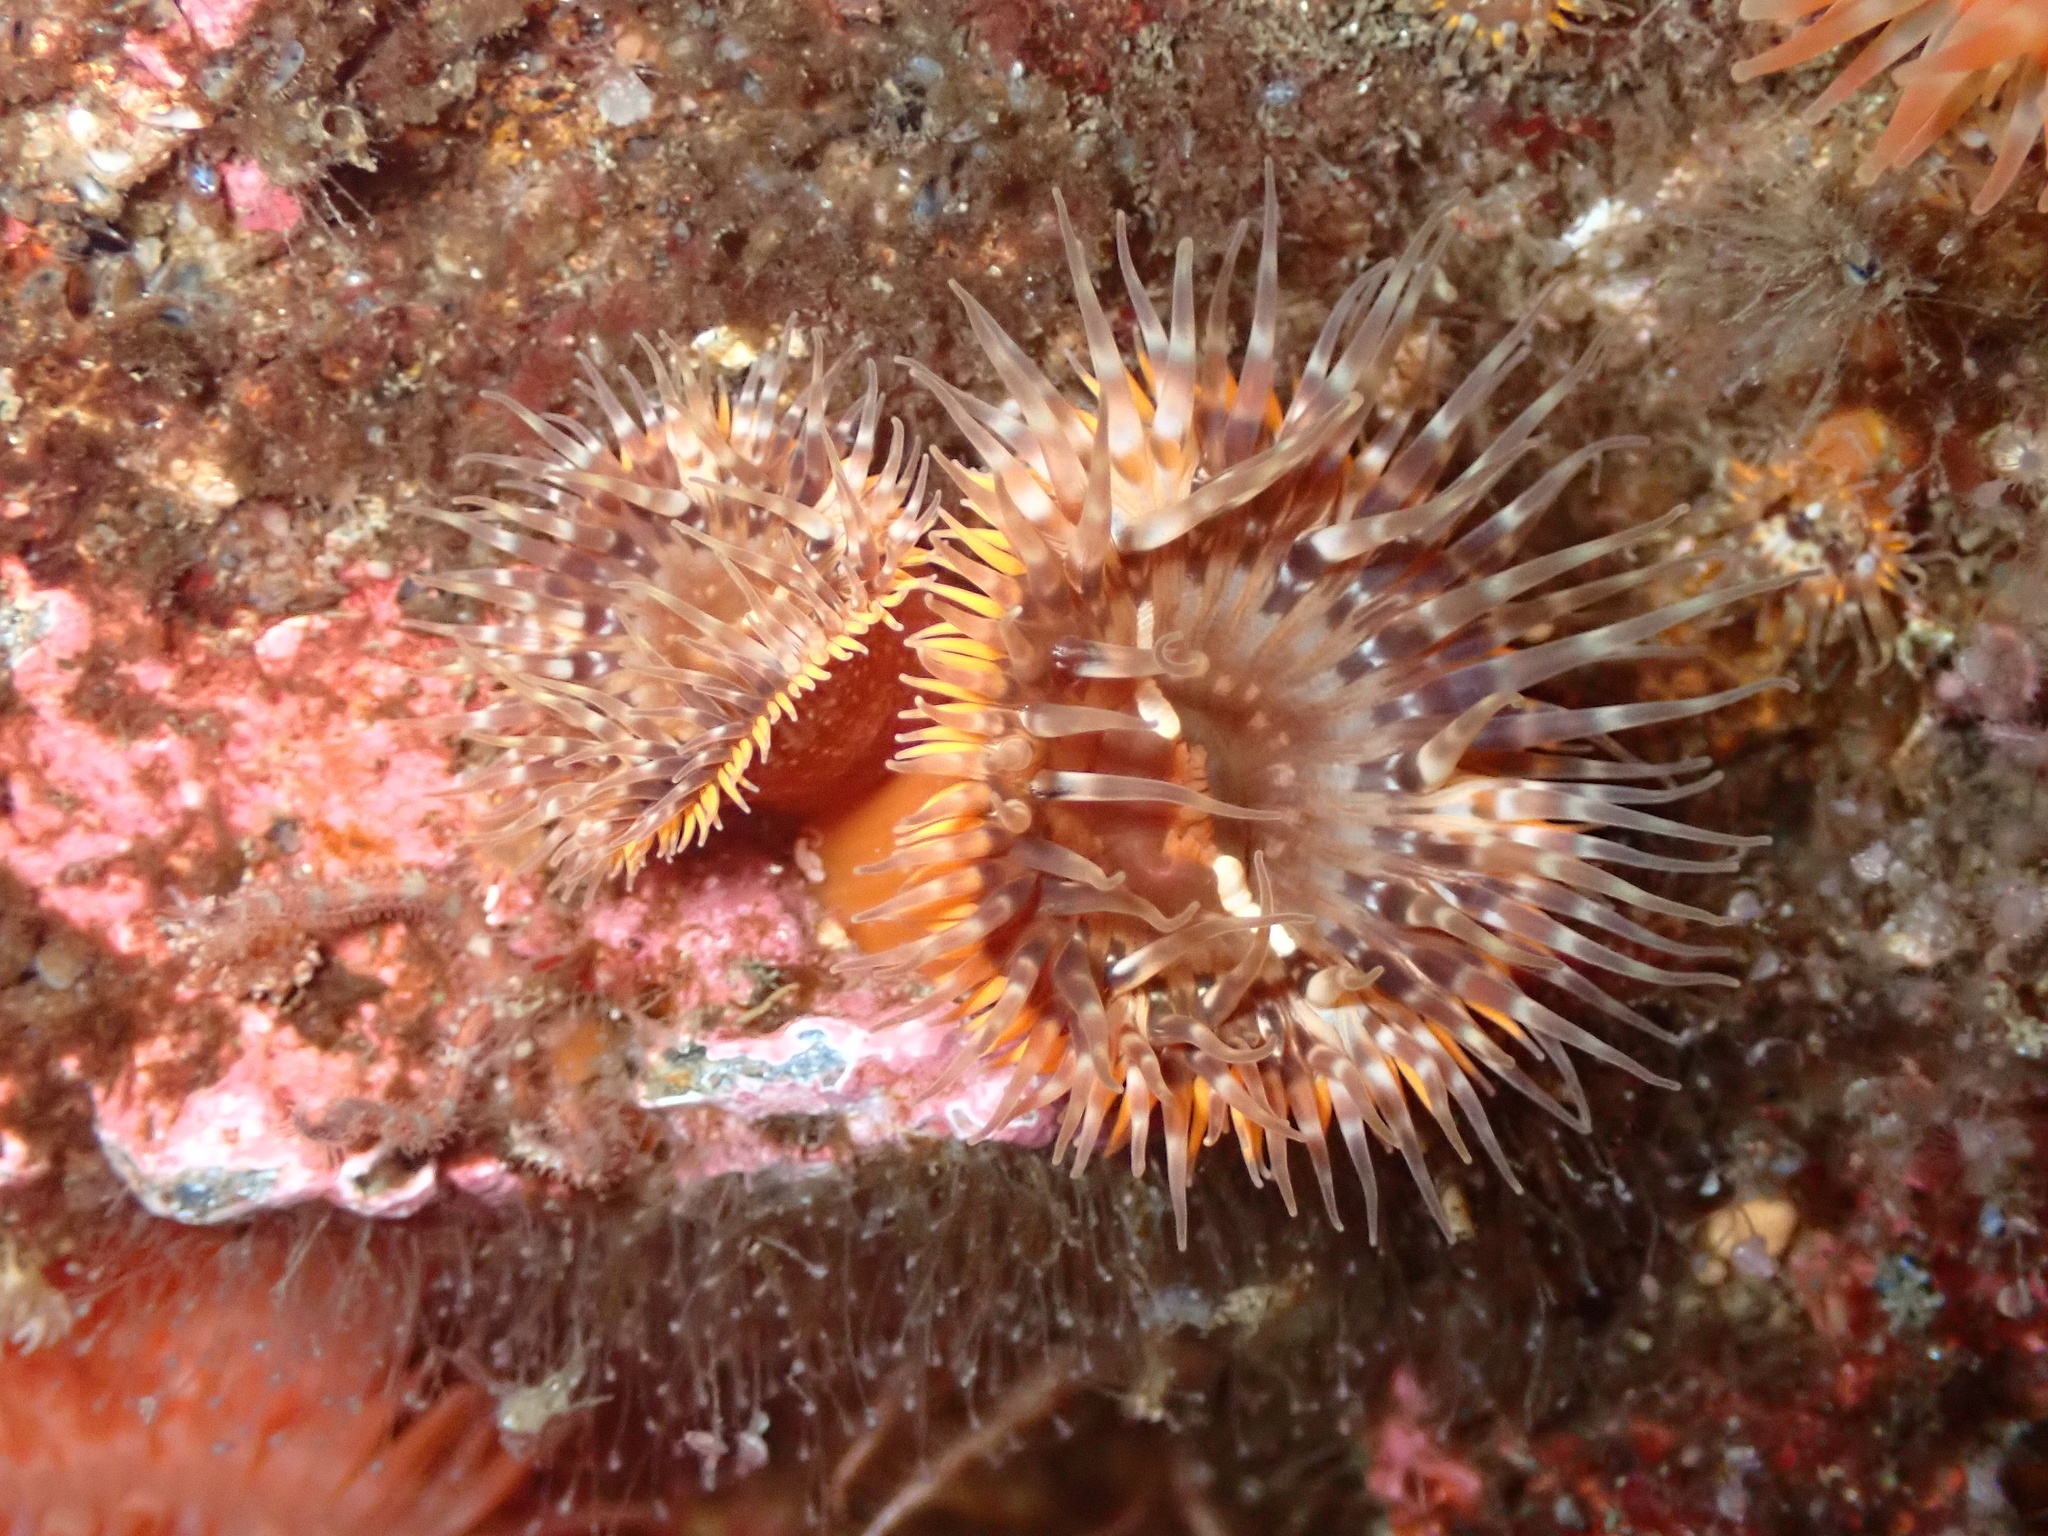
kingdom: Animalia
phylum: Cnidaria
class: Anthozoa
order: Actiniaria
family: Sagartiidae
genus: Cylista
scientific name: Cylista elegans
